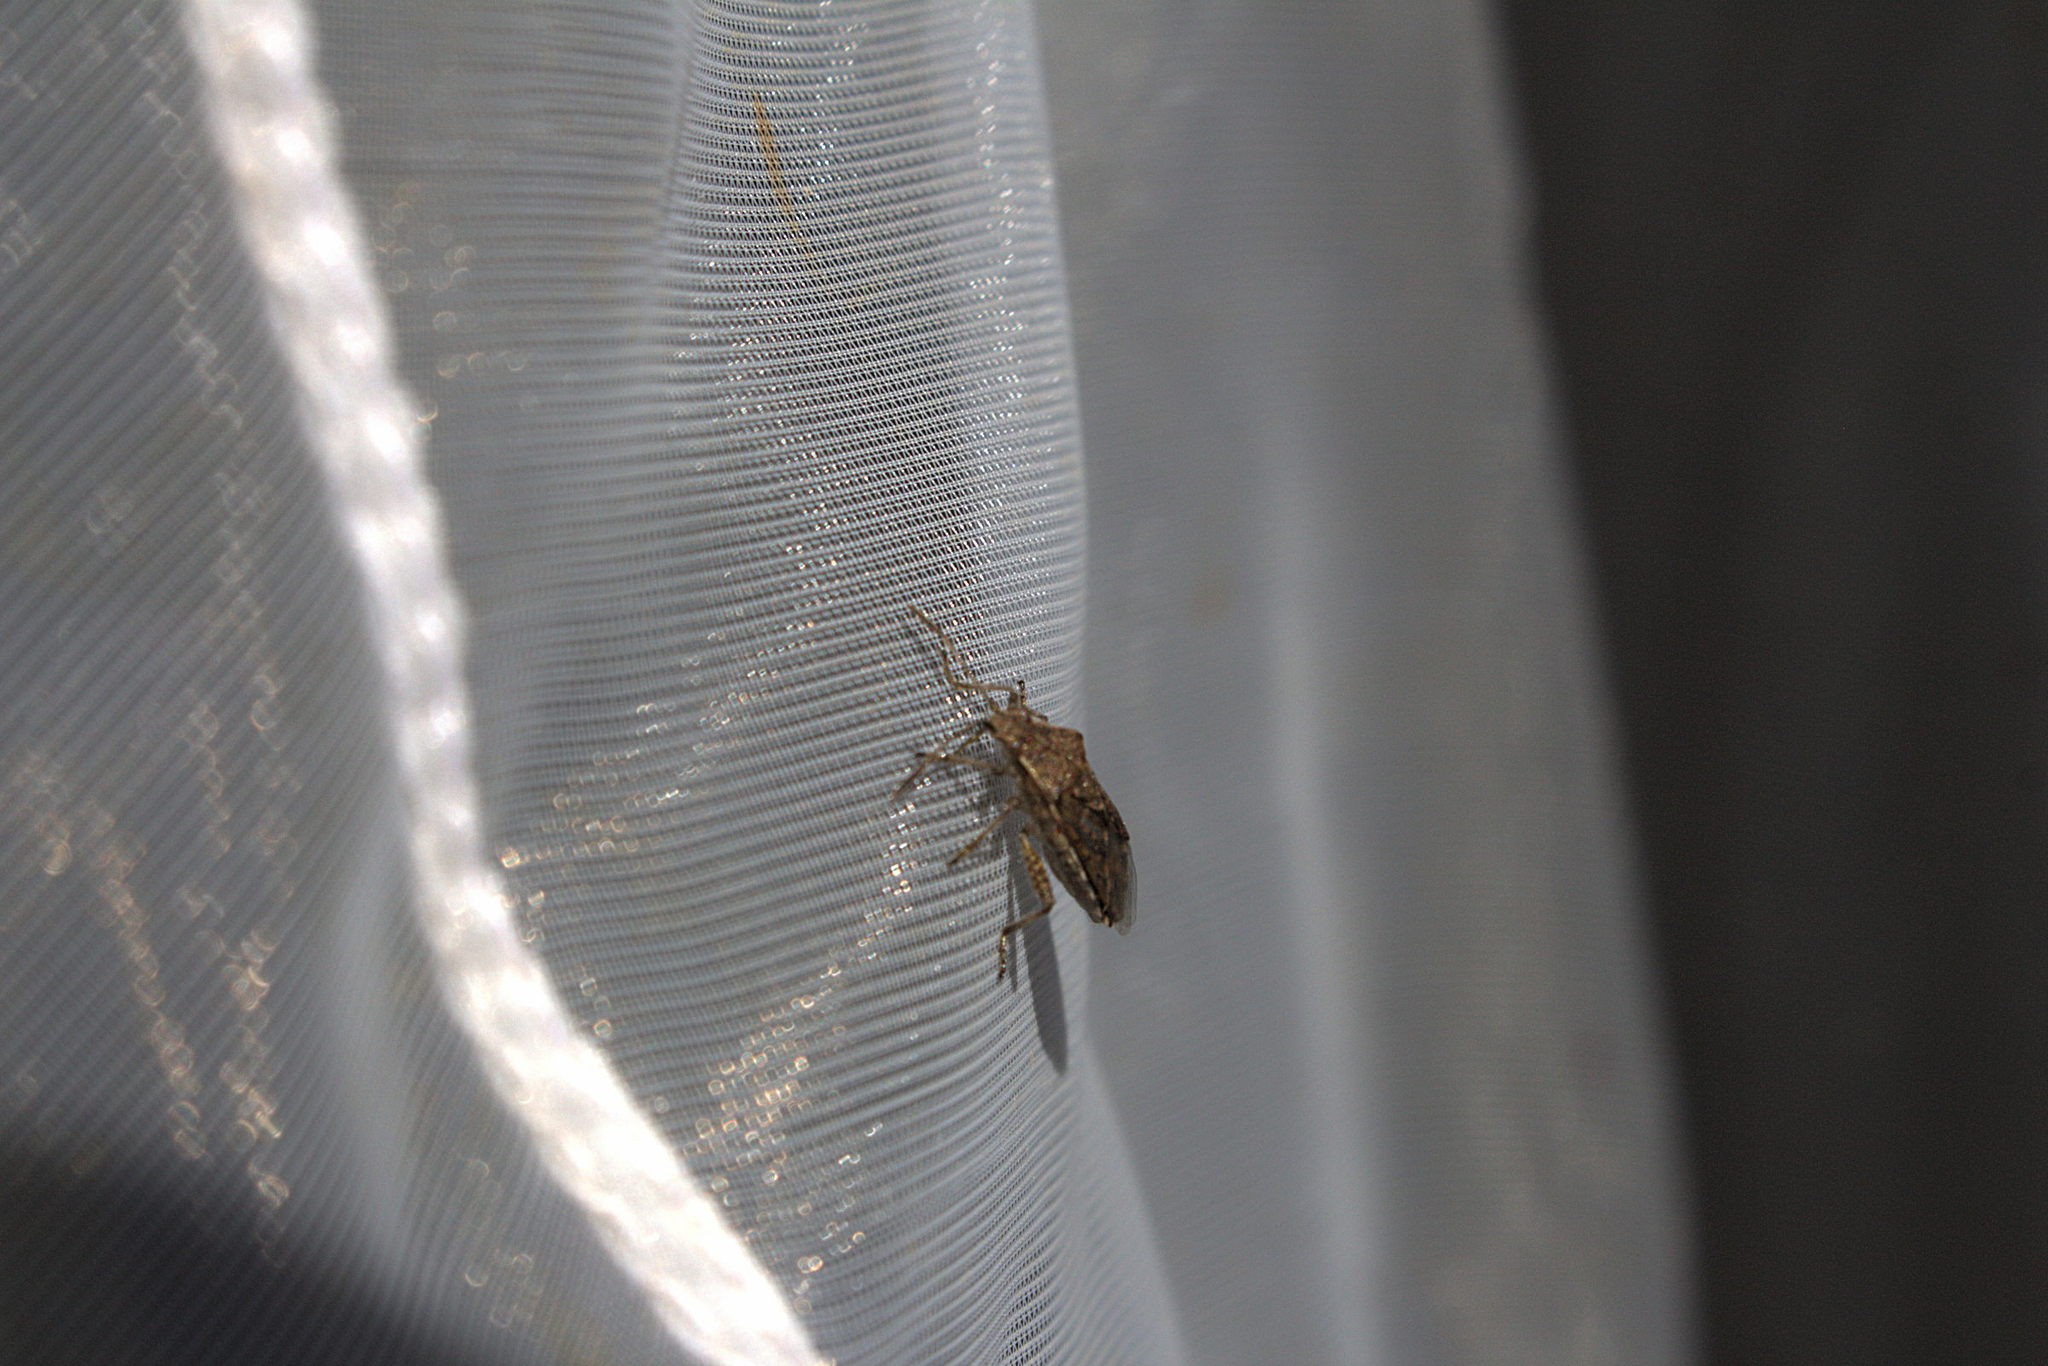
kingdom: Animalia
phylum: Arthropoda
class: Insecta
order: Hemiptera
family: Rhopalidae
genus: Stictopleurus
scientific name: Stictopleurus punctatonervosus
